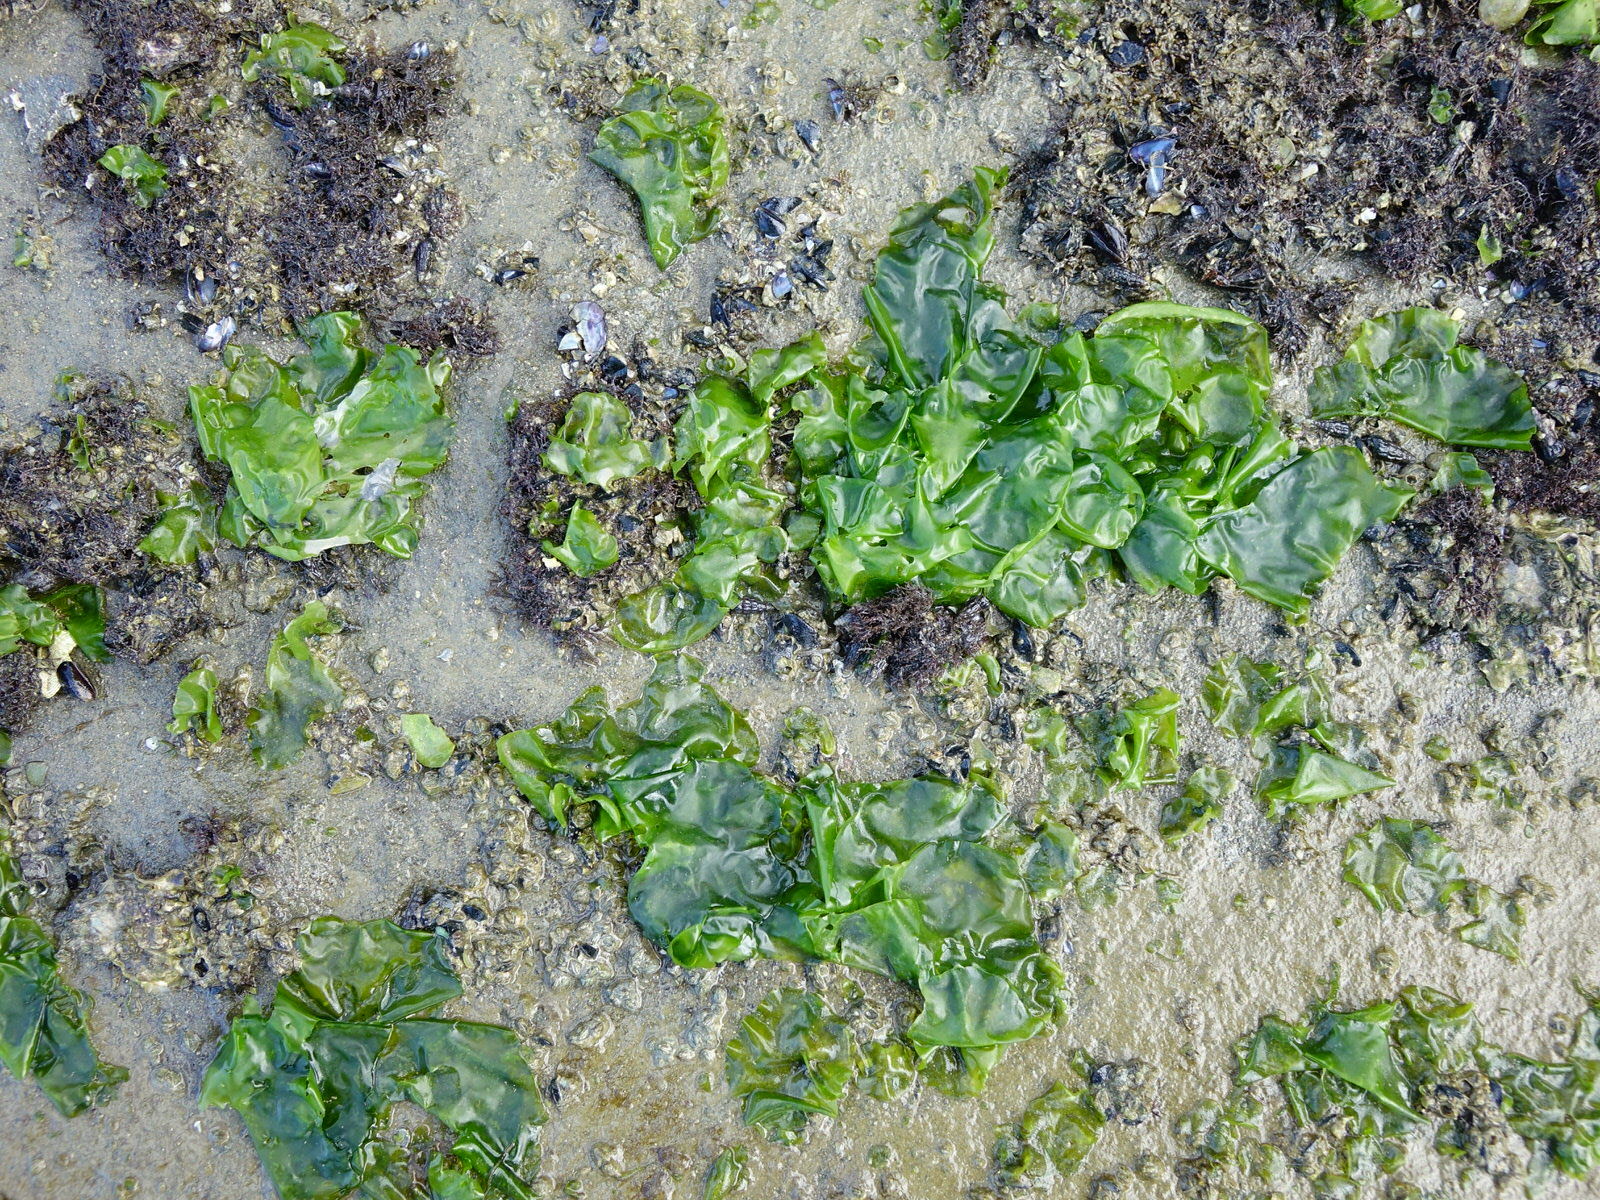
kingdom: Plantae
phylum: Chlorophyta
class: Ulvophyceae
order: Ulvales
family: Ulvaceae
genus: Ulva
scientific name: Ulva
